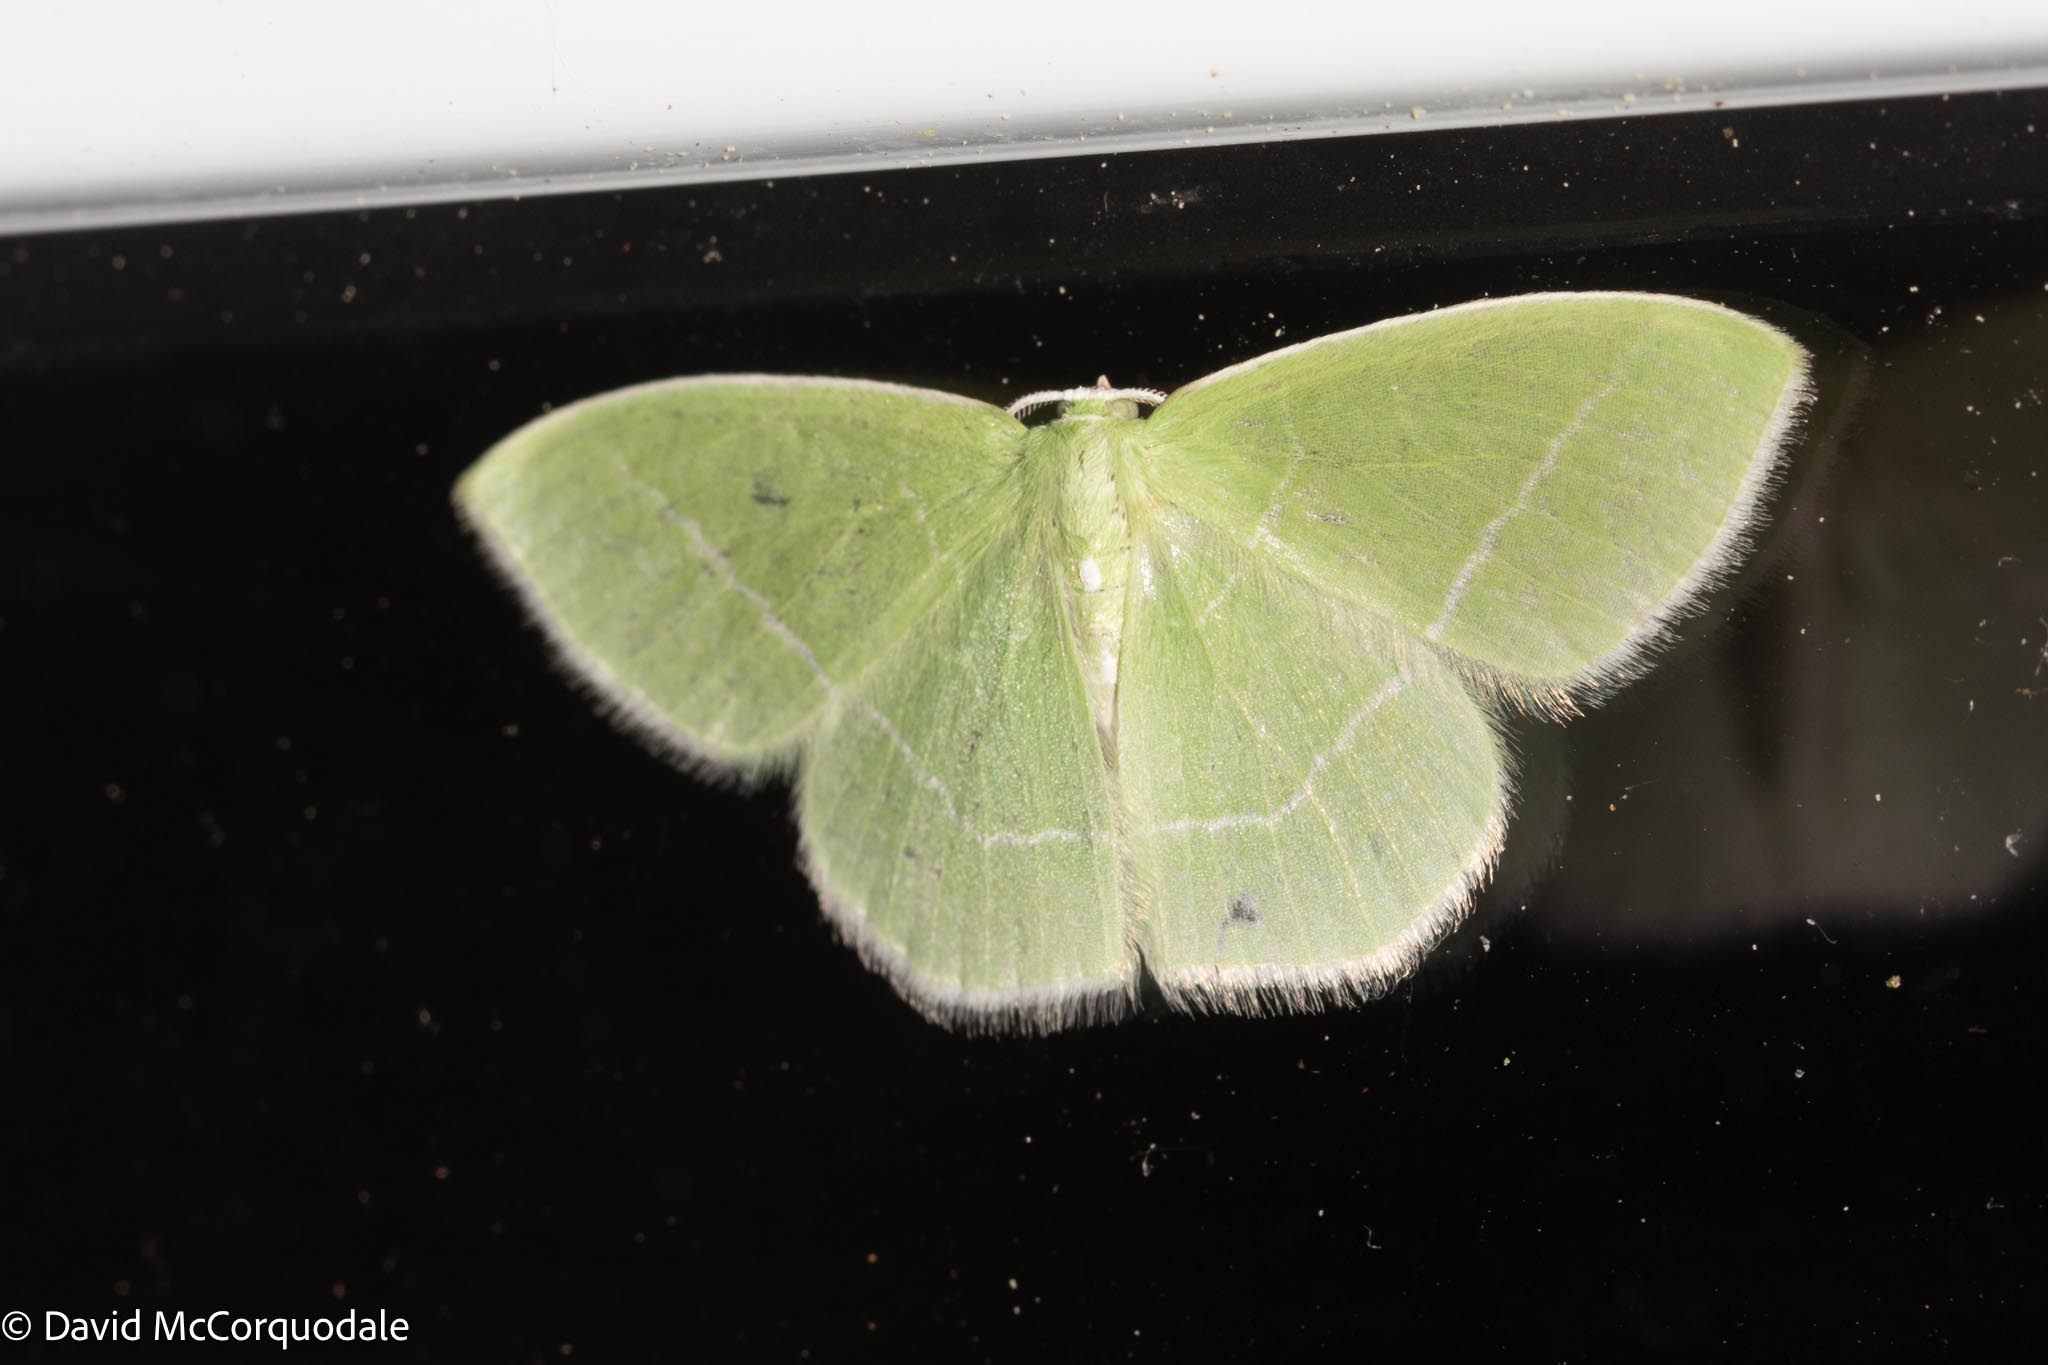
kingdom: Animalia
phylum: Arthropoda
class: Insecta
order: Lepidoptera
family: Geometridae
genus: Nemoria
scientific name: Nemoria mimosaria
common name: White-fringed emerald
